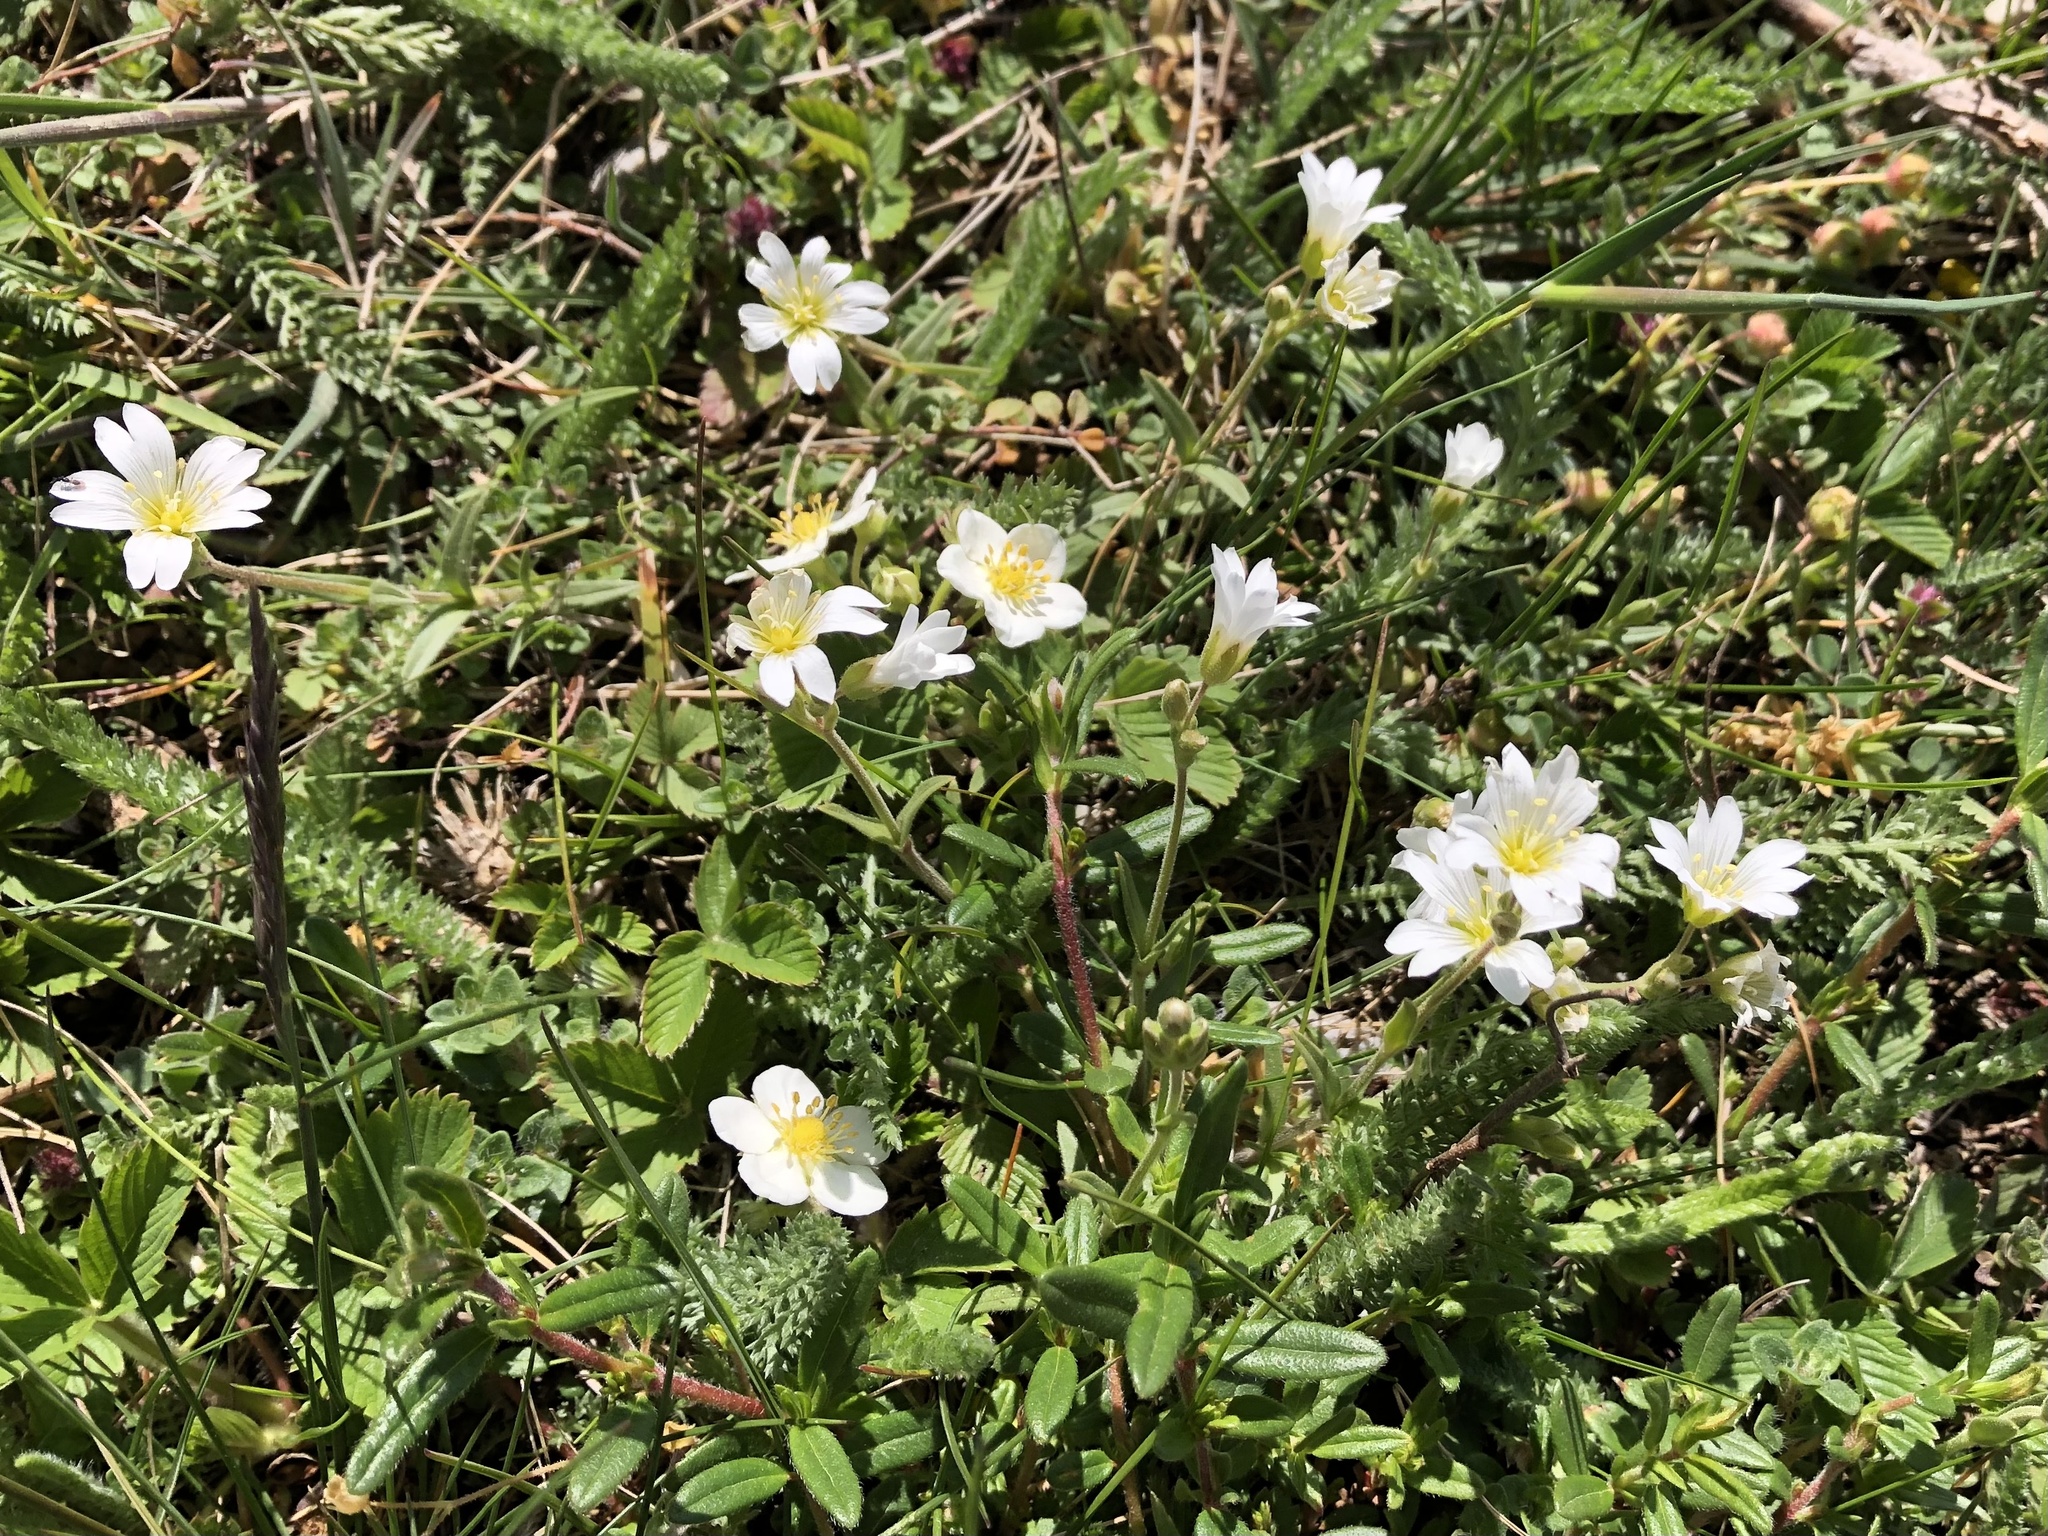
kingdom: Plantae
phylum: Tracheophyta
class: Magnoliopsida
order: Caryophyllales
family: Caryophyllaceae
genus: Cerastium
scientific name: Cerastium arvense
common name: Field mouse-ear
